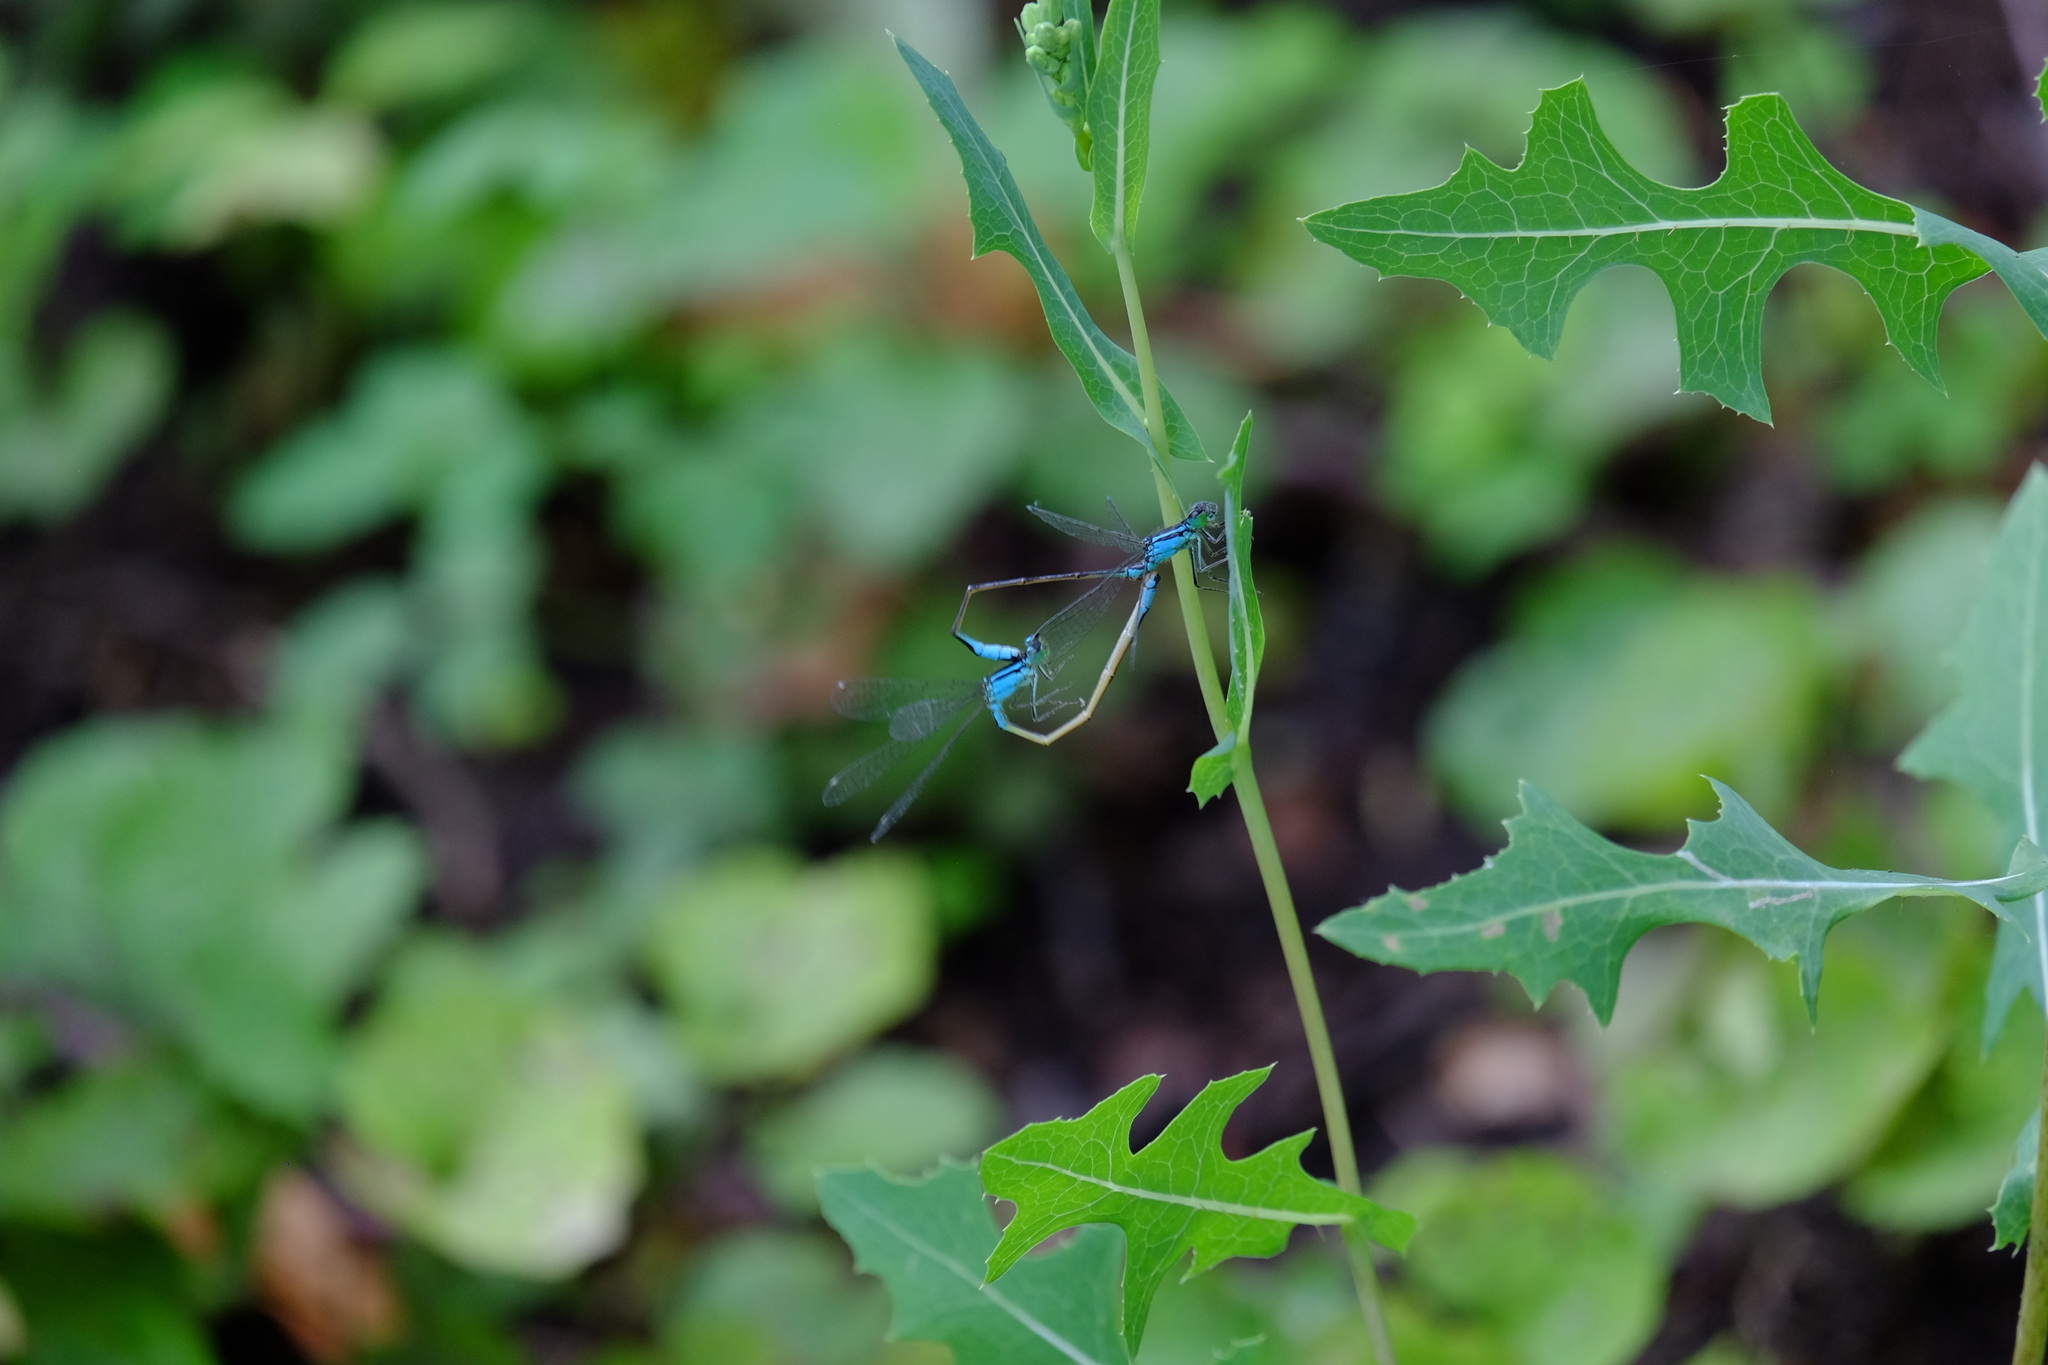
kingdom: Animalia
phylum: Arthropoda
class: Insecta
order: Odonata
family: Coenagrionidae
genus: Ischnura
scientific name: Ischnura elegans
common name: Blue-tailed damselfly
